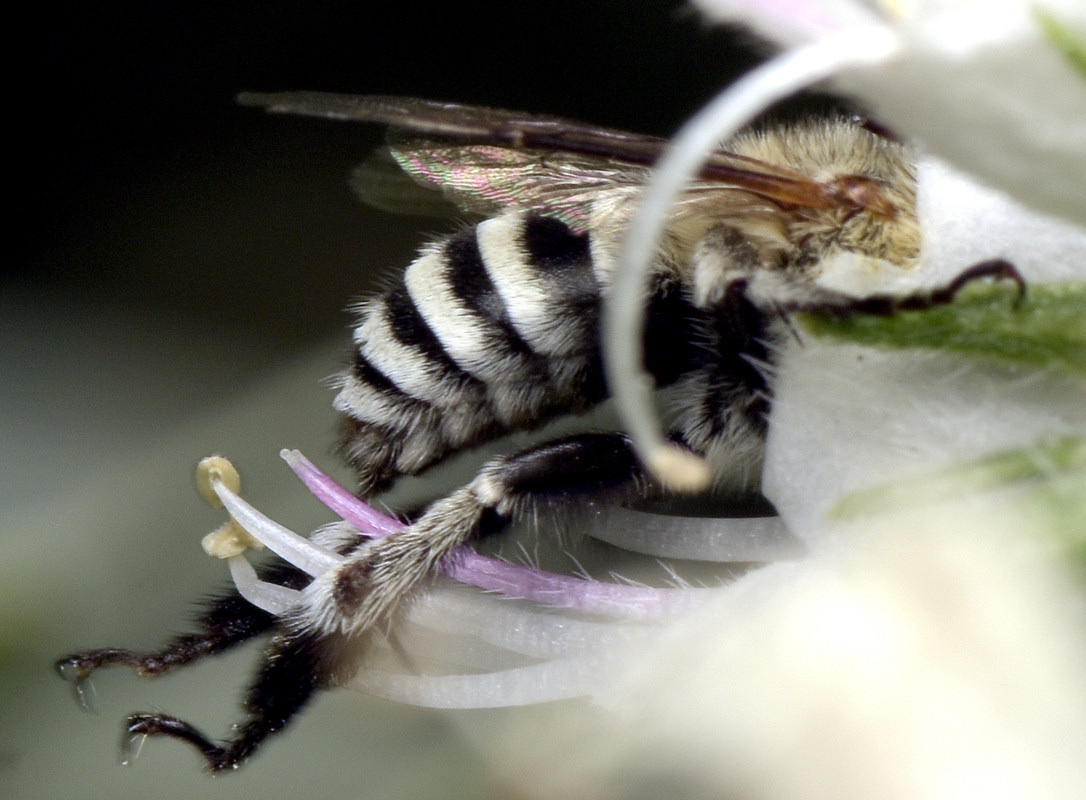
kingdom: Animalia
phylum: Arthropoda
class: Insecta
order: Hymenoptera
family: Apidae
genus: Amegilla
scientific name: Amegilla murrayensis
